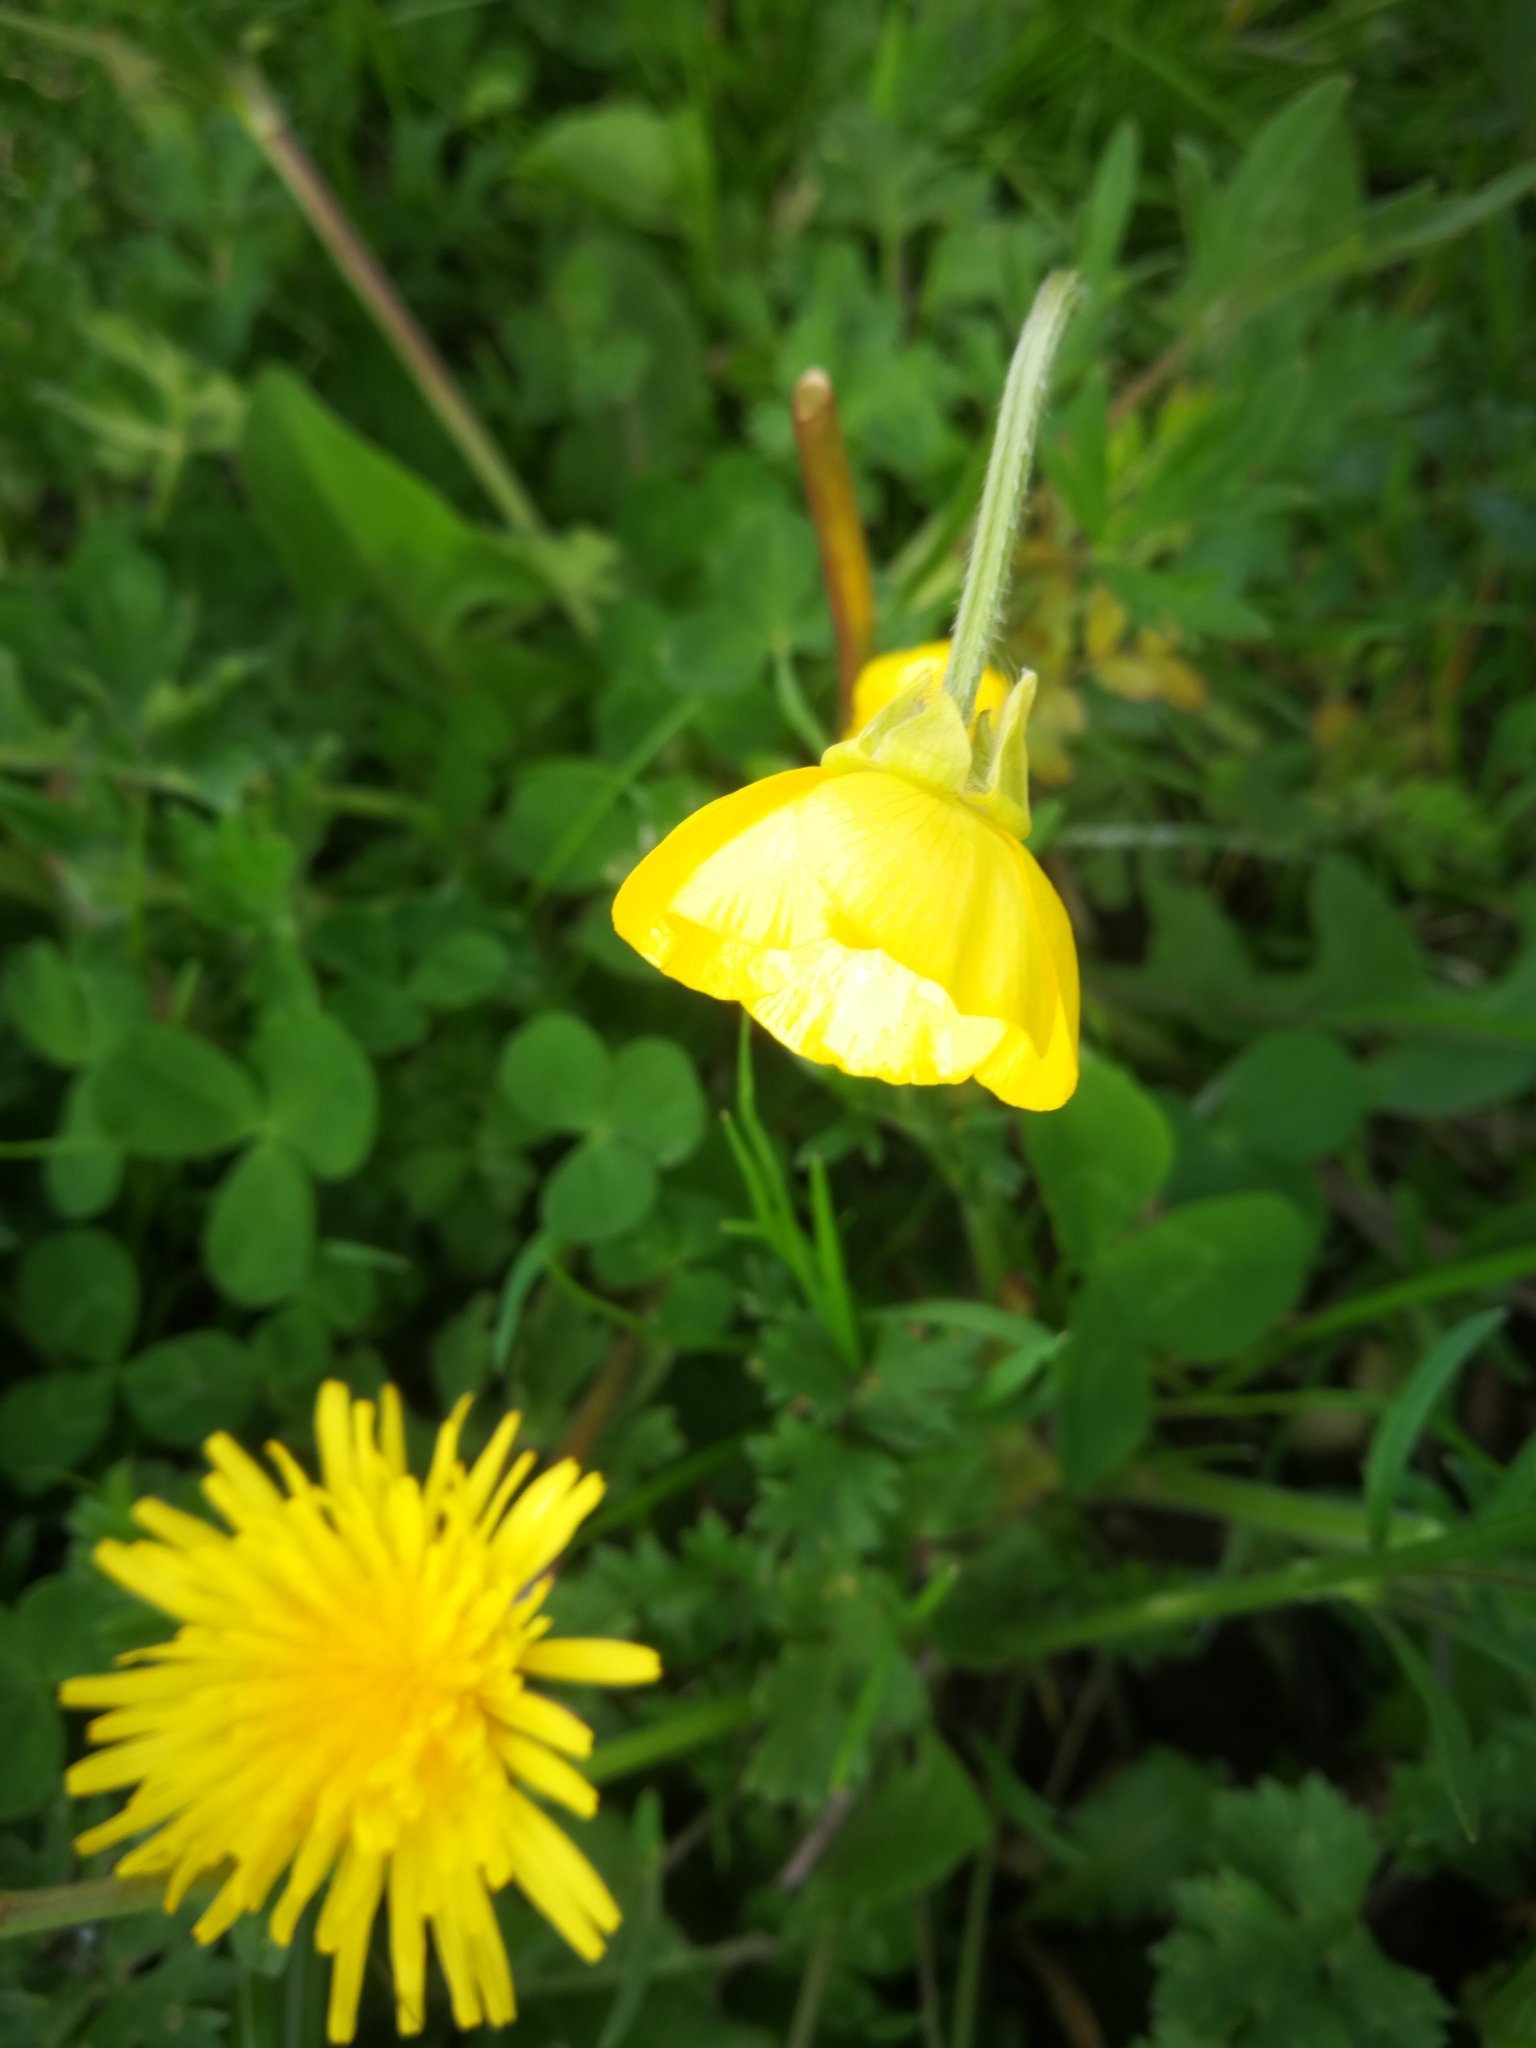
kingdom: Plantae
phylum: Tracheophyta
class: Magnoliopsida
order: Ranunculales
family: Ranunculaceae
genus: Ranunculus
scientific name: Ranunculus bulbosus
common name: Bulbous buttercup
